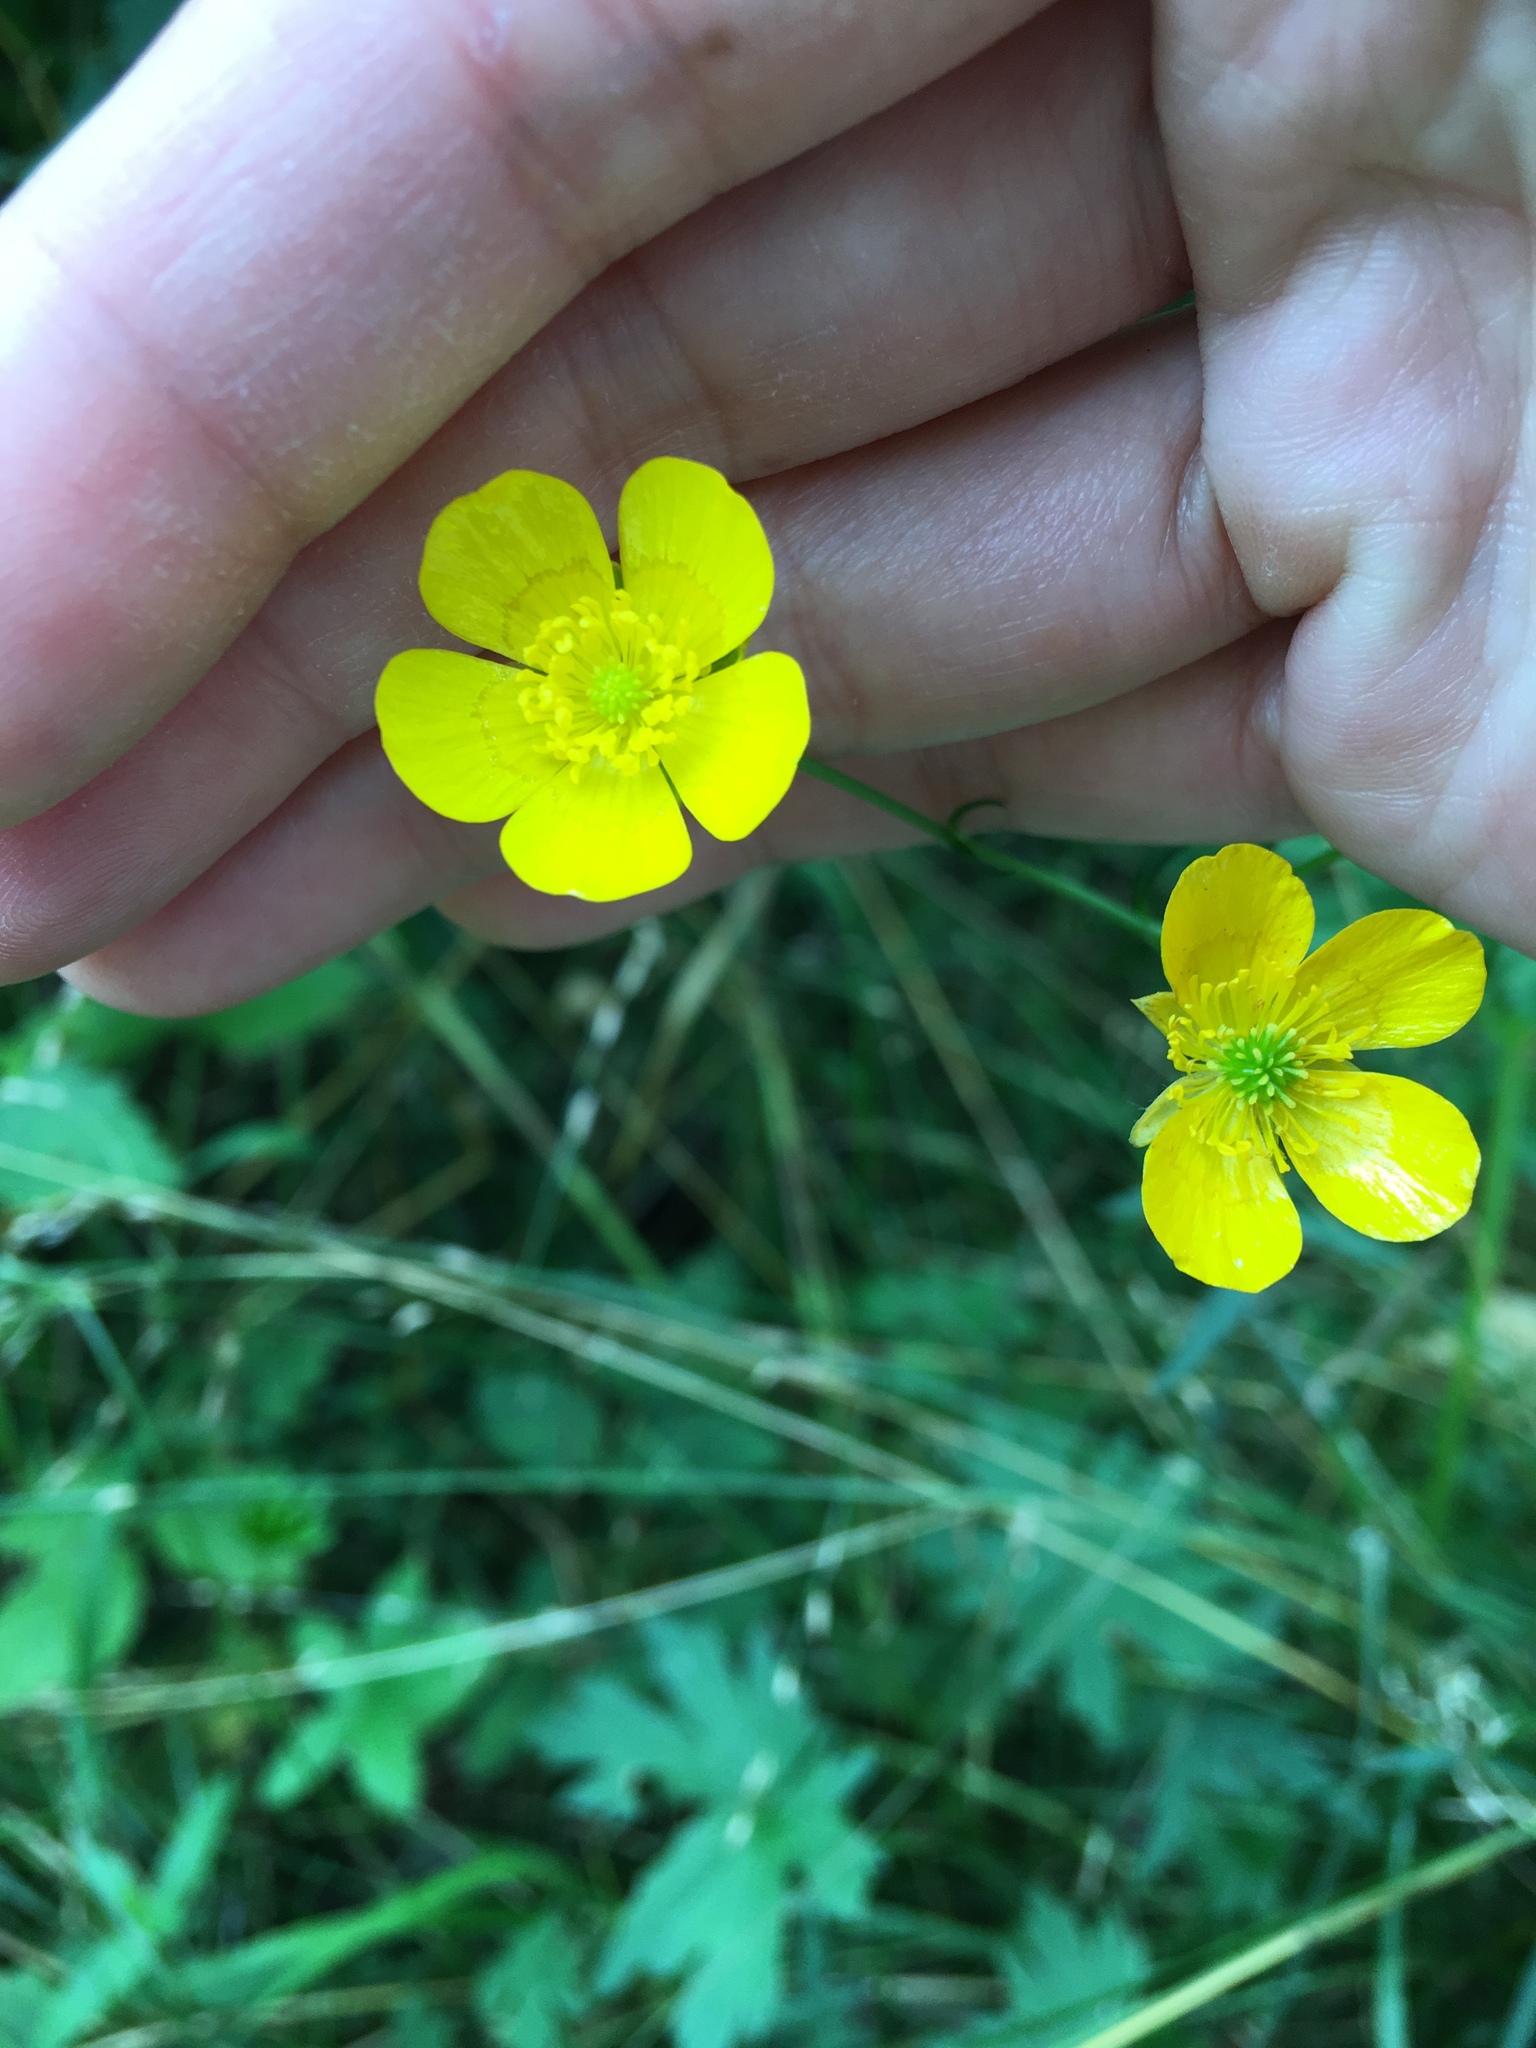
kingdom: Plantae
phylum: Tracheophyta
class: Magnoliopsida
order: Ranunculales
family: Ranunculaceae
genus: Ranunculus
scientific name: Ranunculus acris
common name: Meadow buttercup
